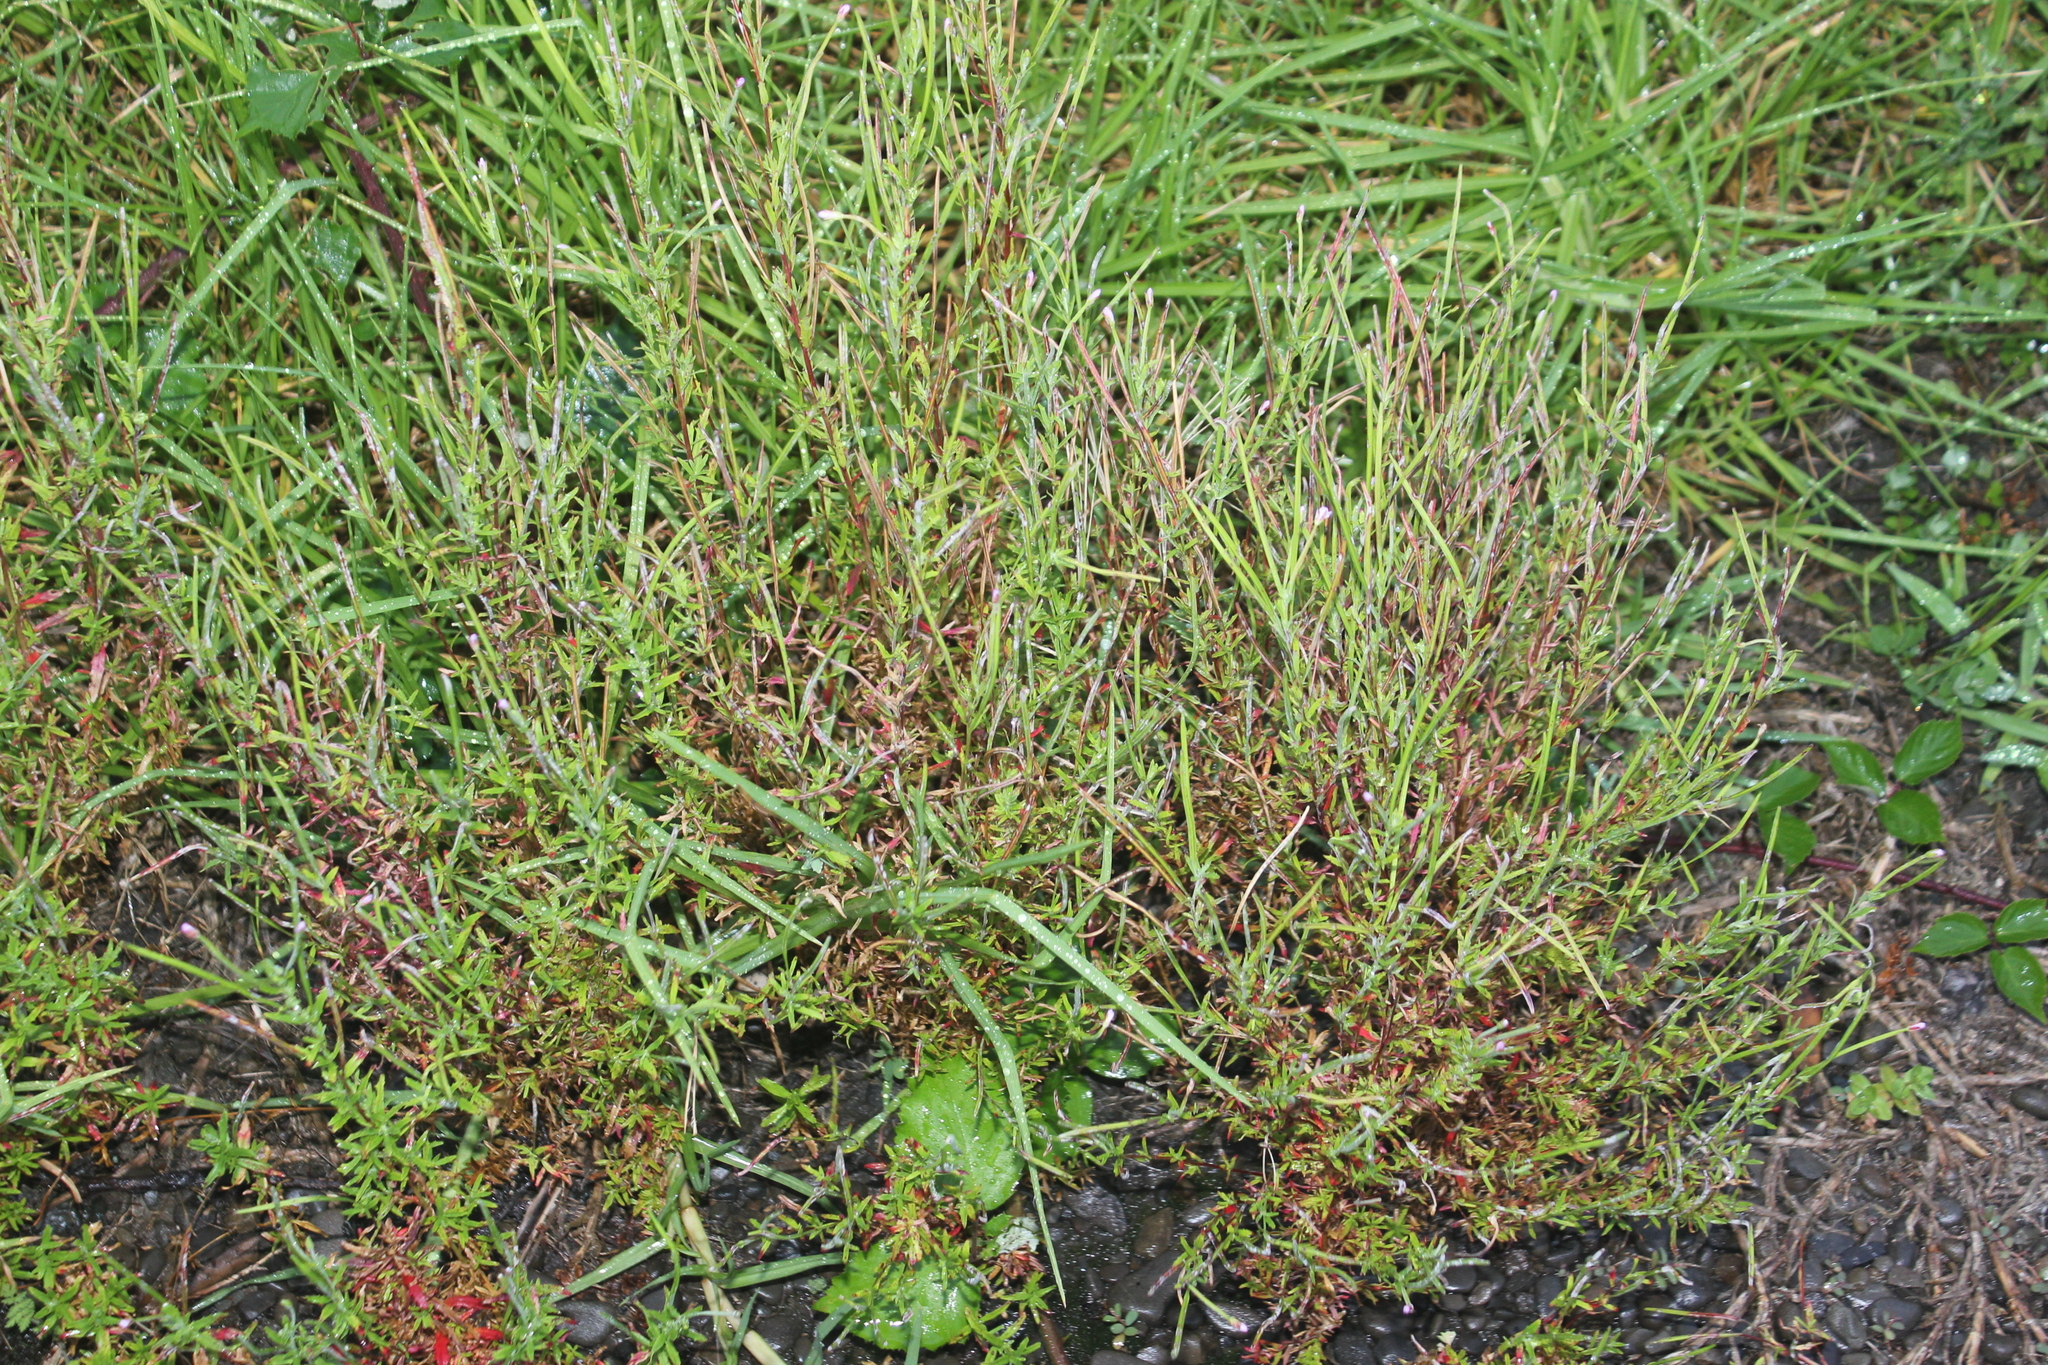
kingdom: Plantae
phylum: Tracheophyta
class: Magnoliopsida
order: Myrtales
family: Onagraceae
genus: Epilobium
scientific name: Epilobium billardierianum
